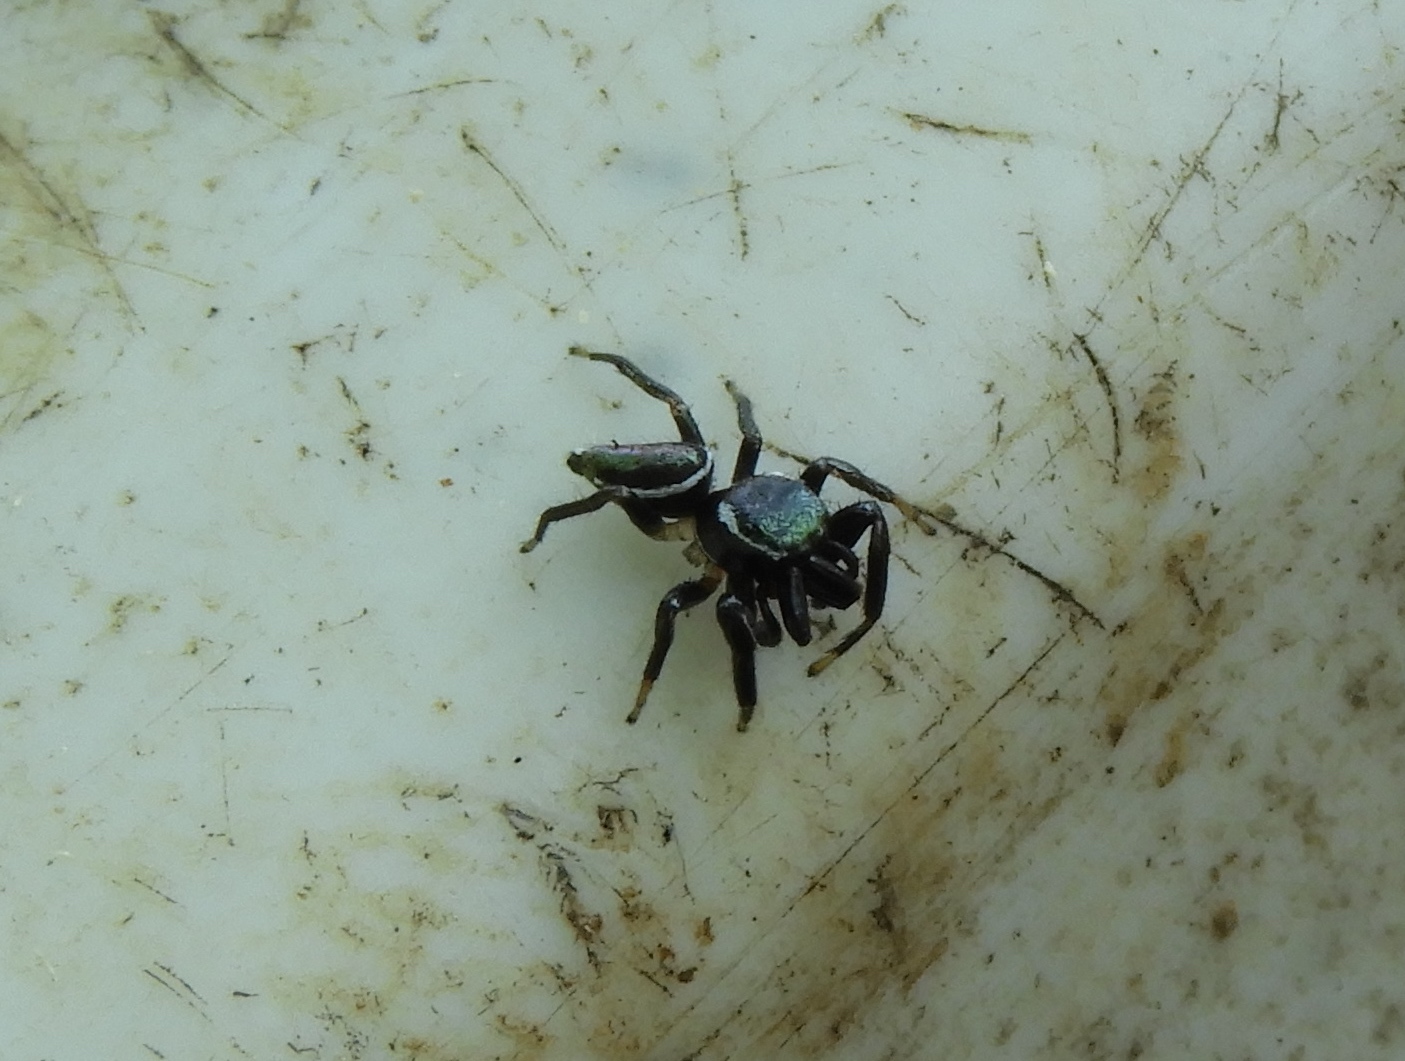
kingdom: Animalia
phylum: Arthropoda
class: Arachnida
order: Araneae
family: Salticidae
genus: Messua
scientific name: Messua limbata
